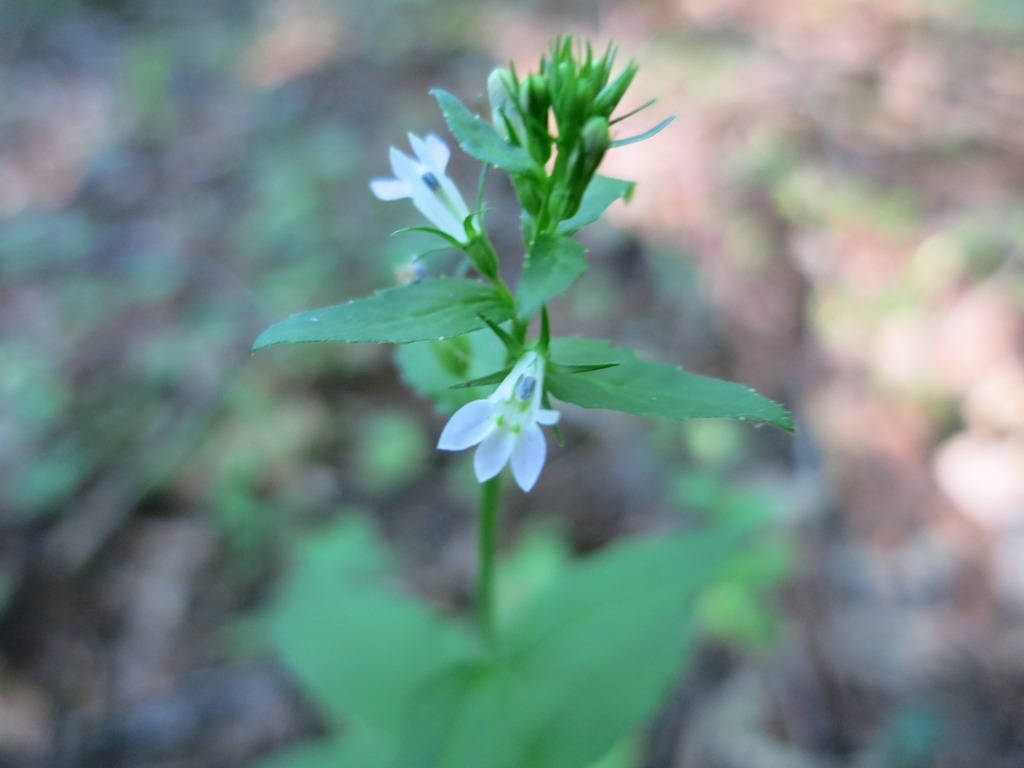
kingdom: Plantae
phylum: Tracheophyta
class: Magnoliopsida
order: Asterales
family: Campanulaceae
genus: Lobelia
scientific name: Lobelia inflata
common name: Indian tobacco
